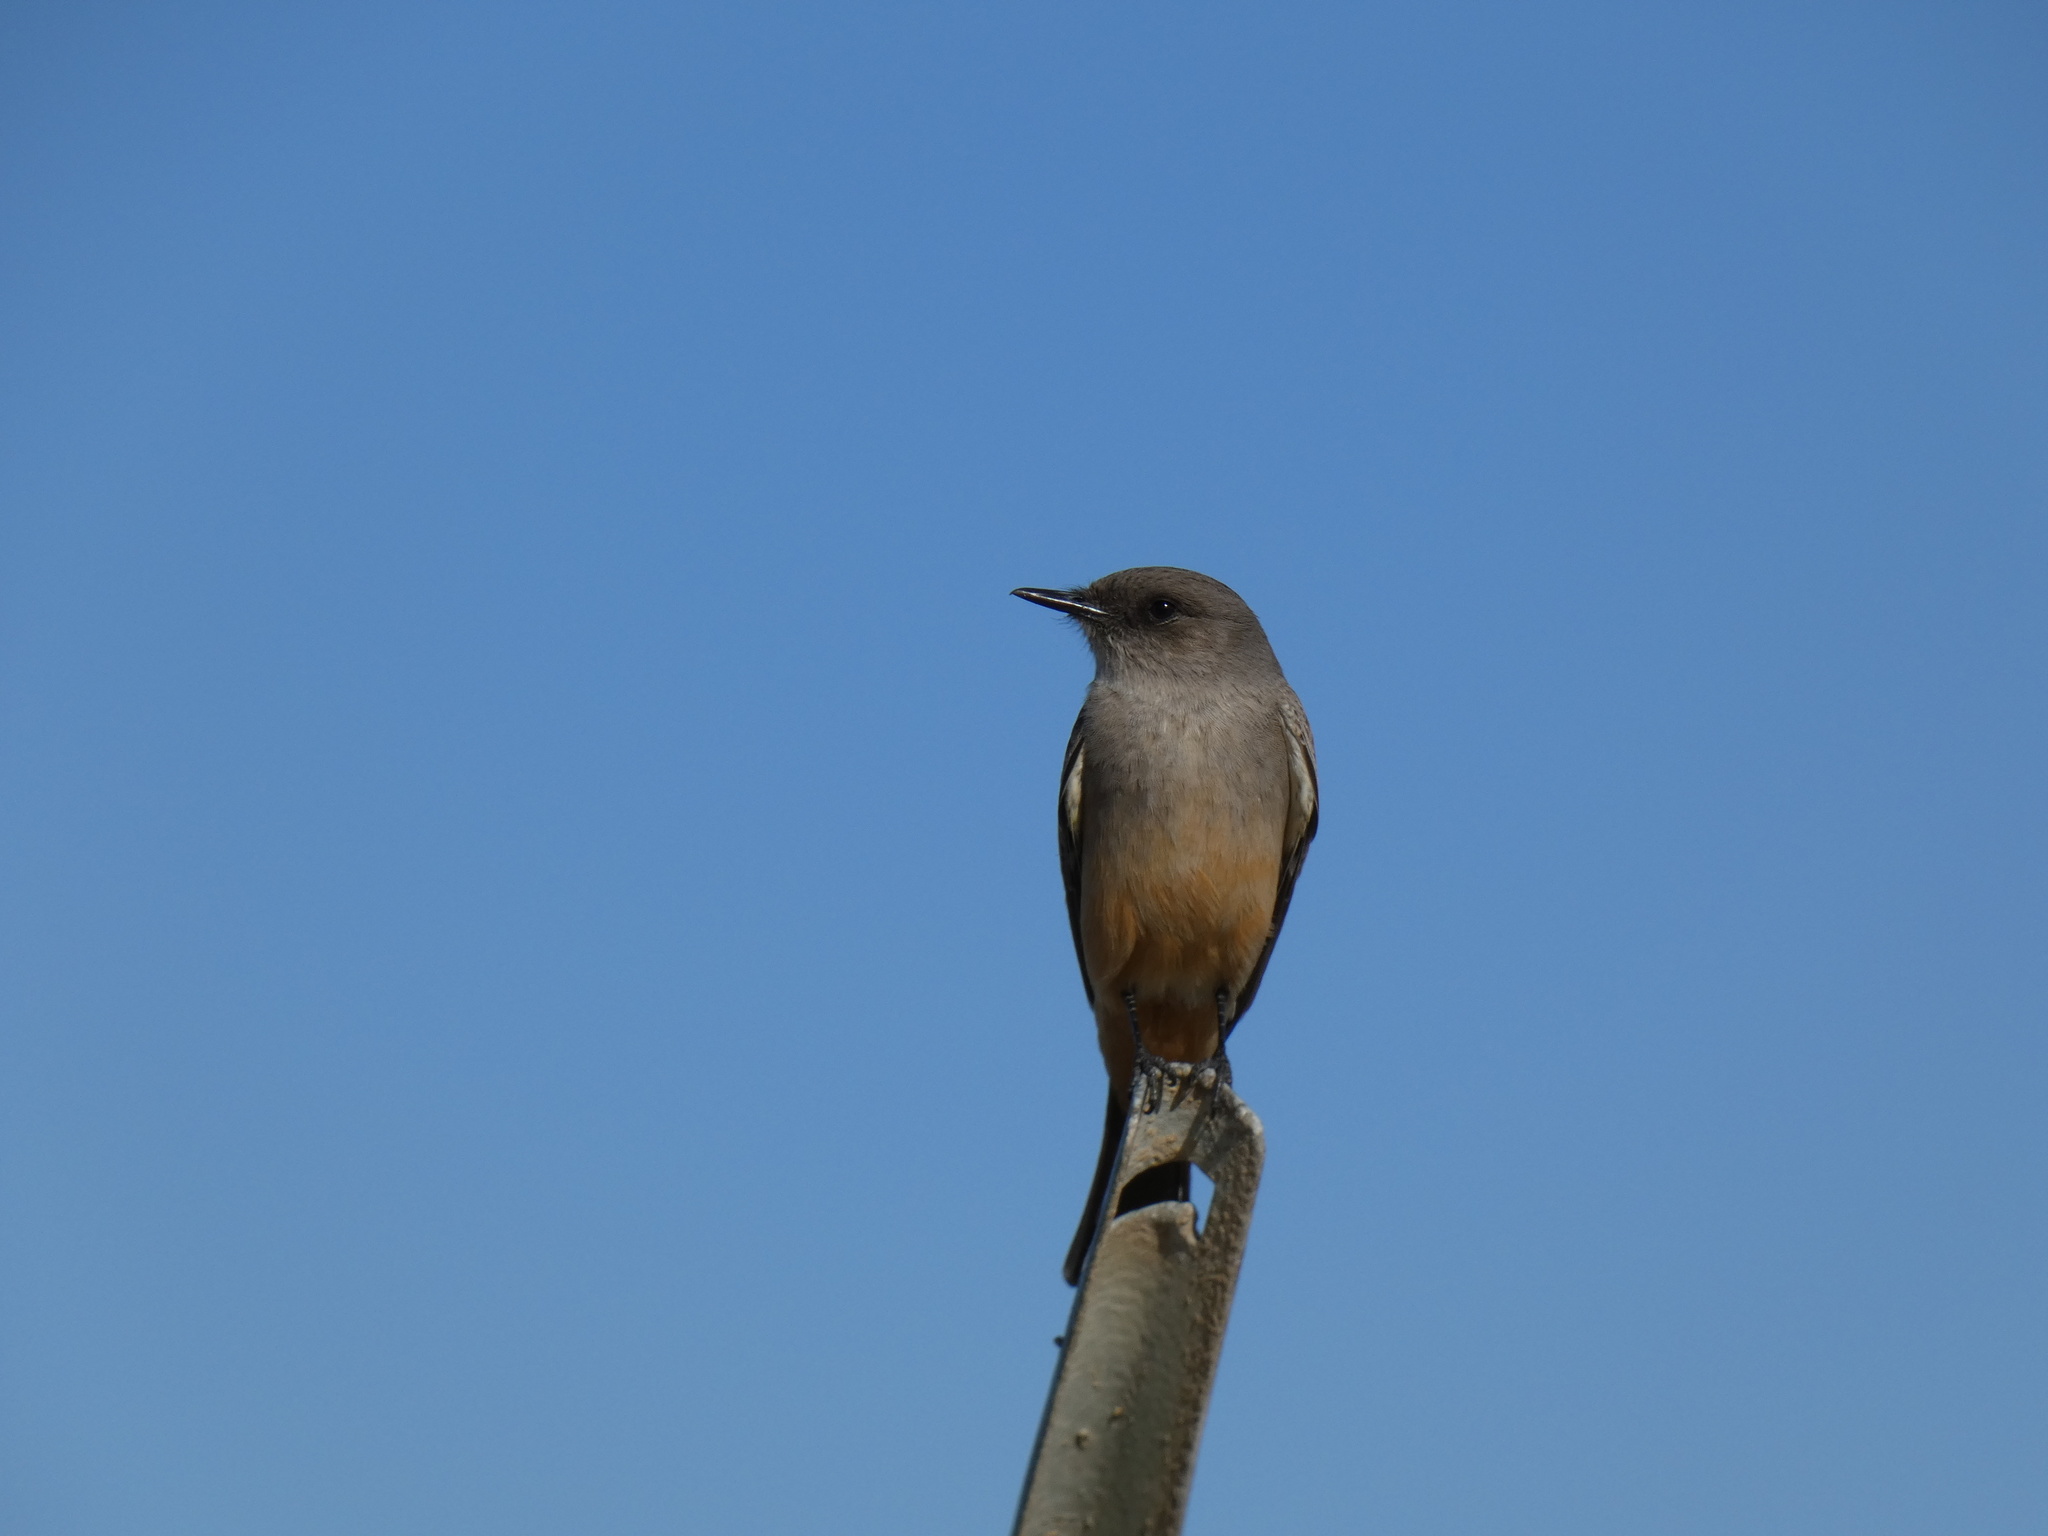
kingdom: Animalia
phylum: Chordata
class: Aves
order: Passeriformes
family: Tyrannidae
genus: Sayornis
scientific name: Sayornis saya
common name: Say's phoebe
